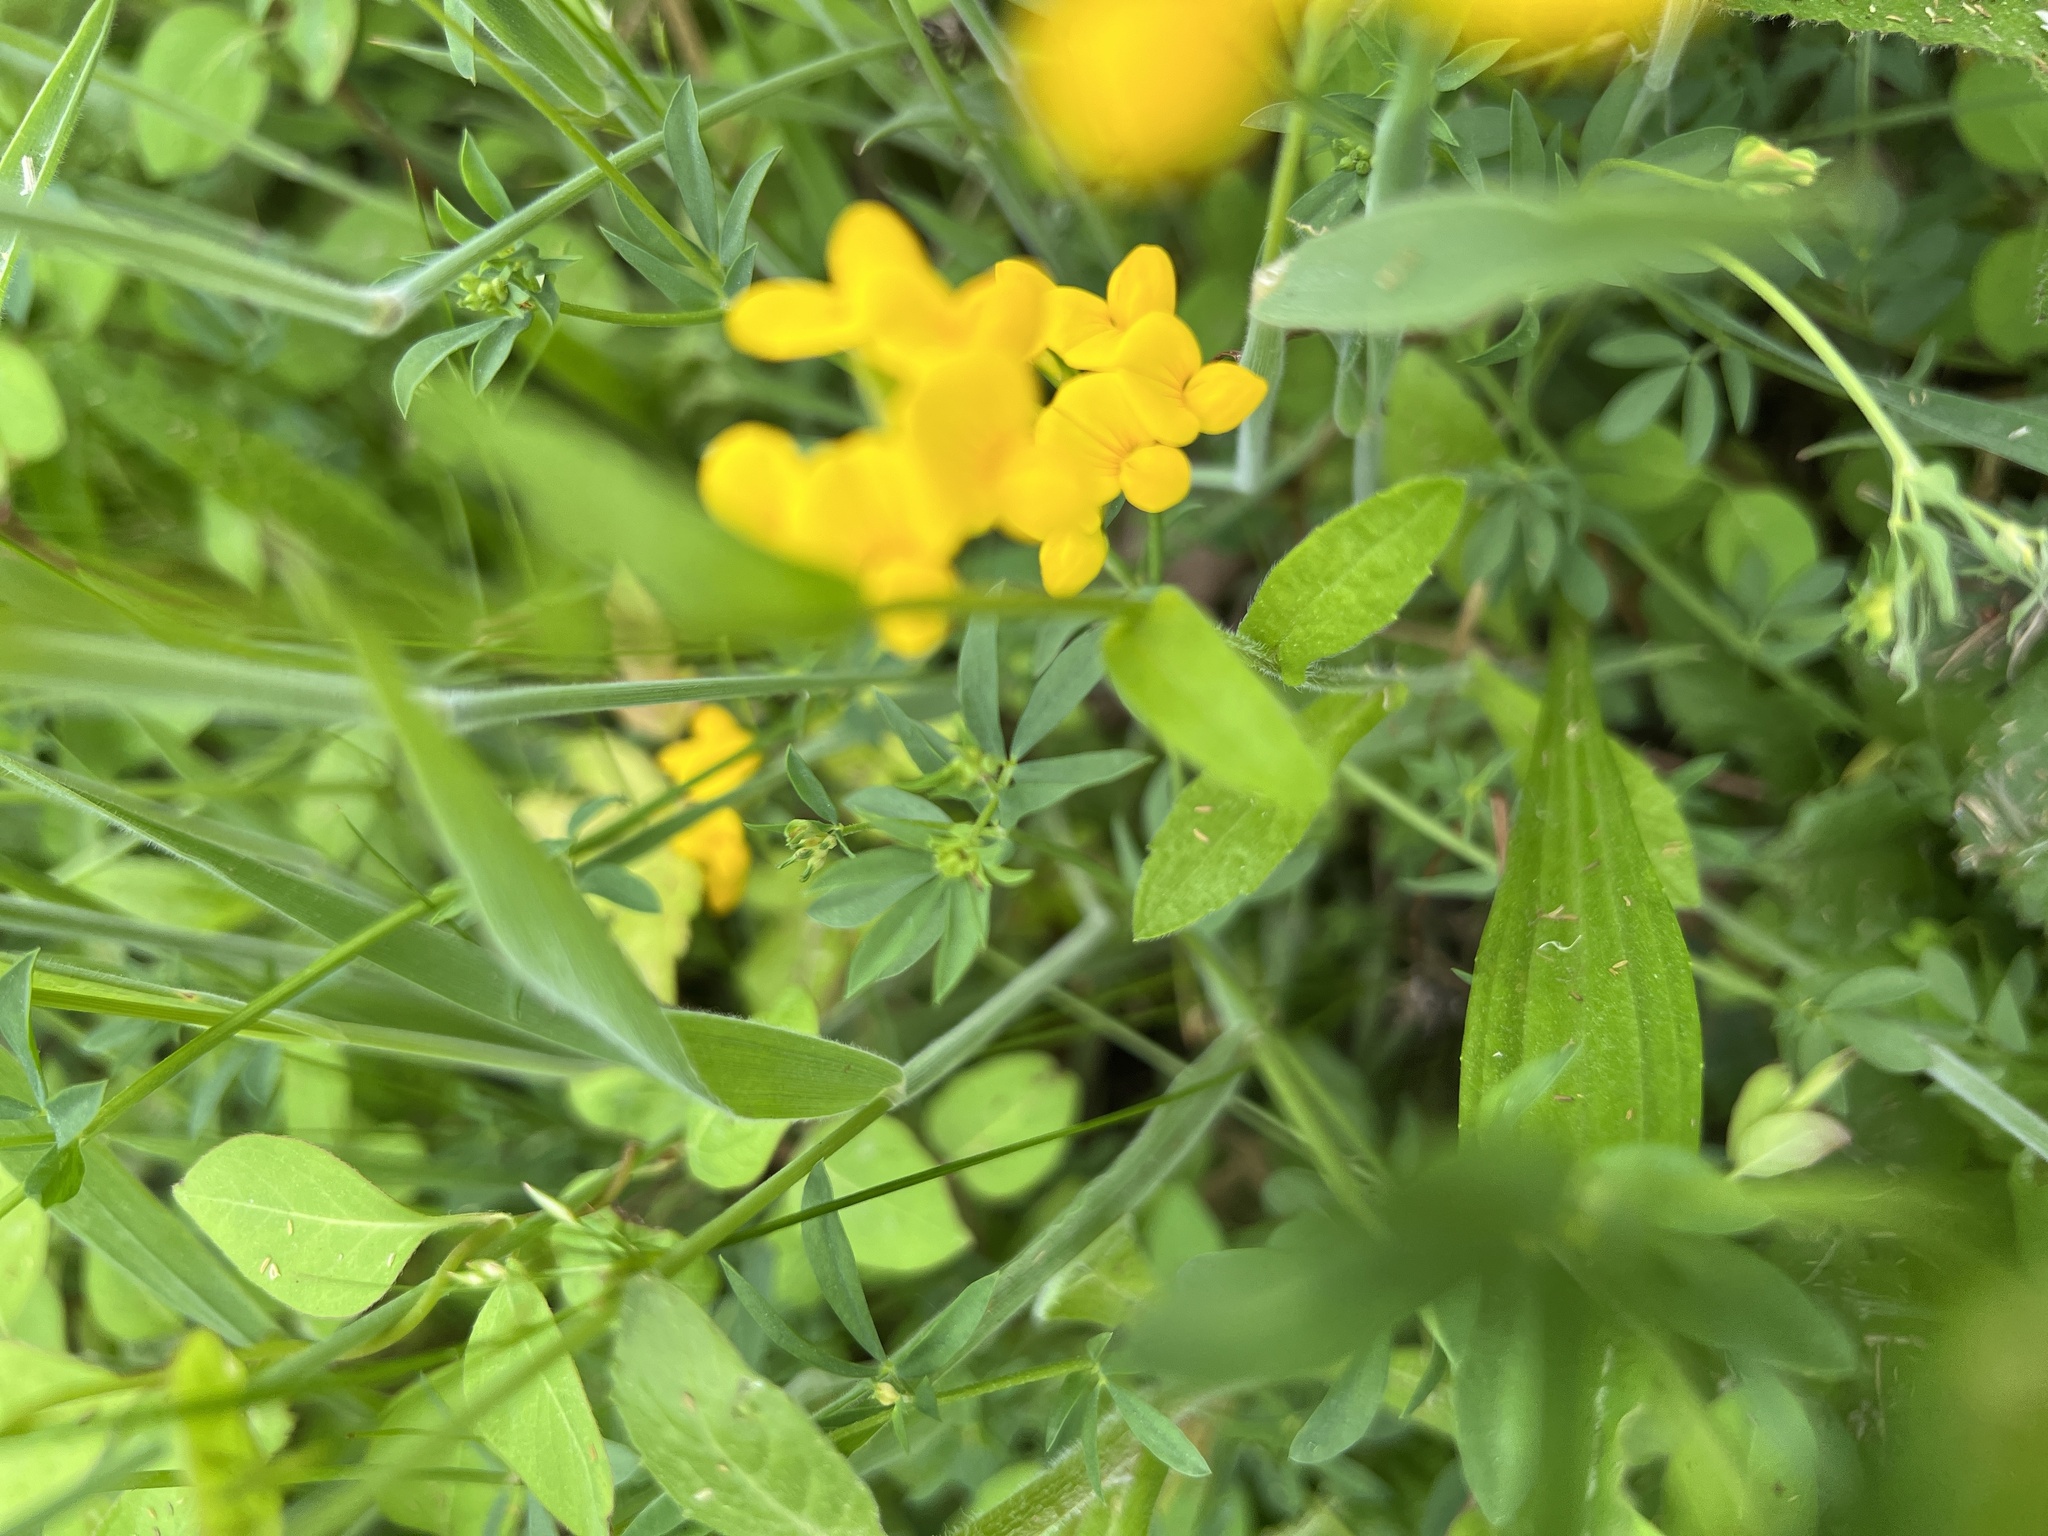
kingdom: Plantae
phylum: Tracheophyta
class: Magnoliopsida
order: Asterales
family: Asteraceae
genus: Erigeron
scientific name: Erigeron philadelphicus
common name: Robin's-plantain
